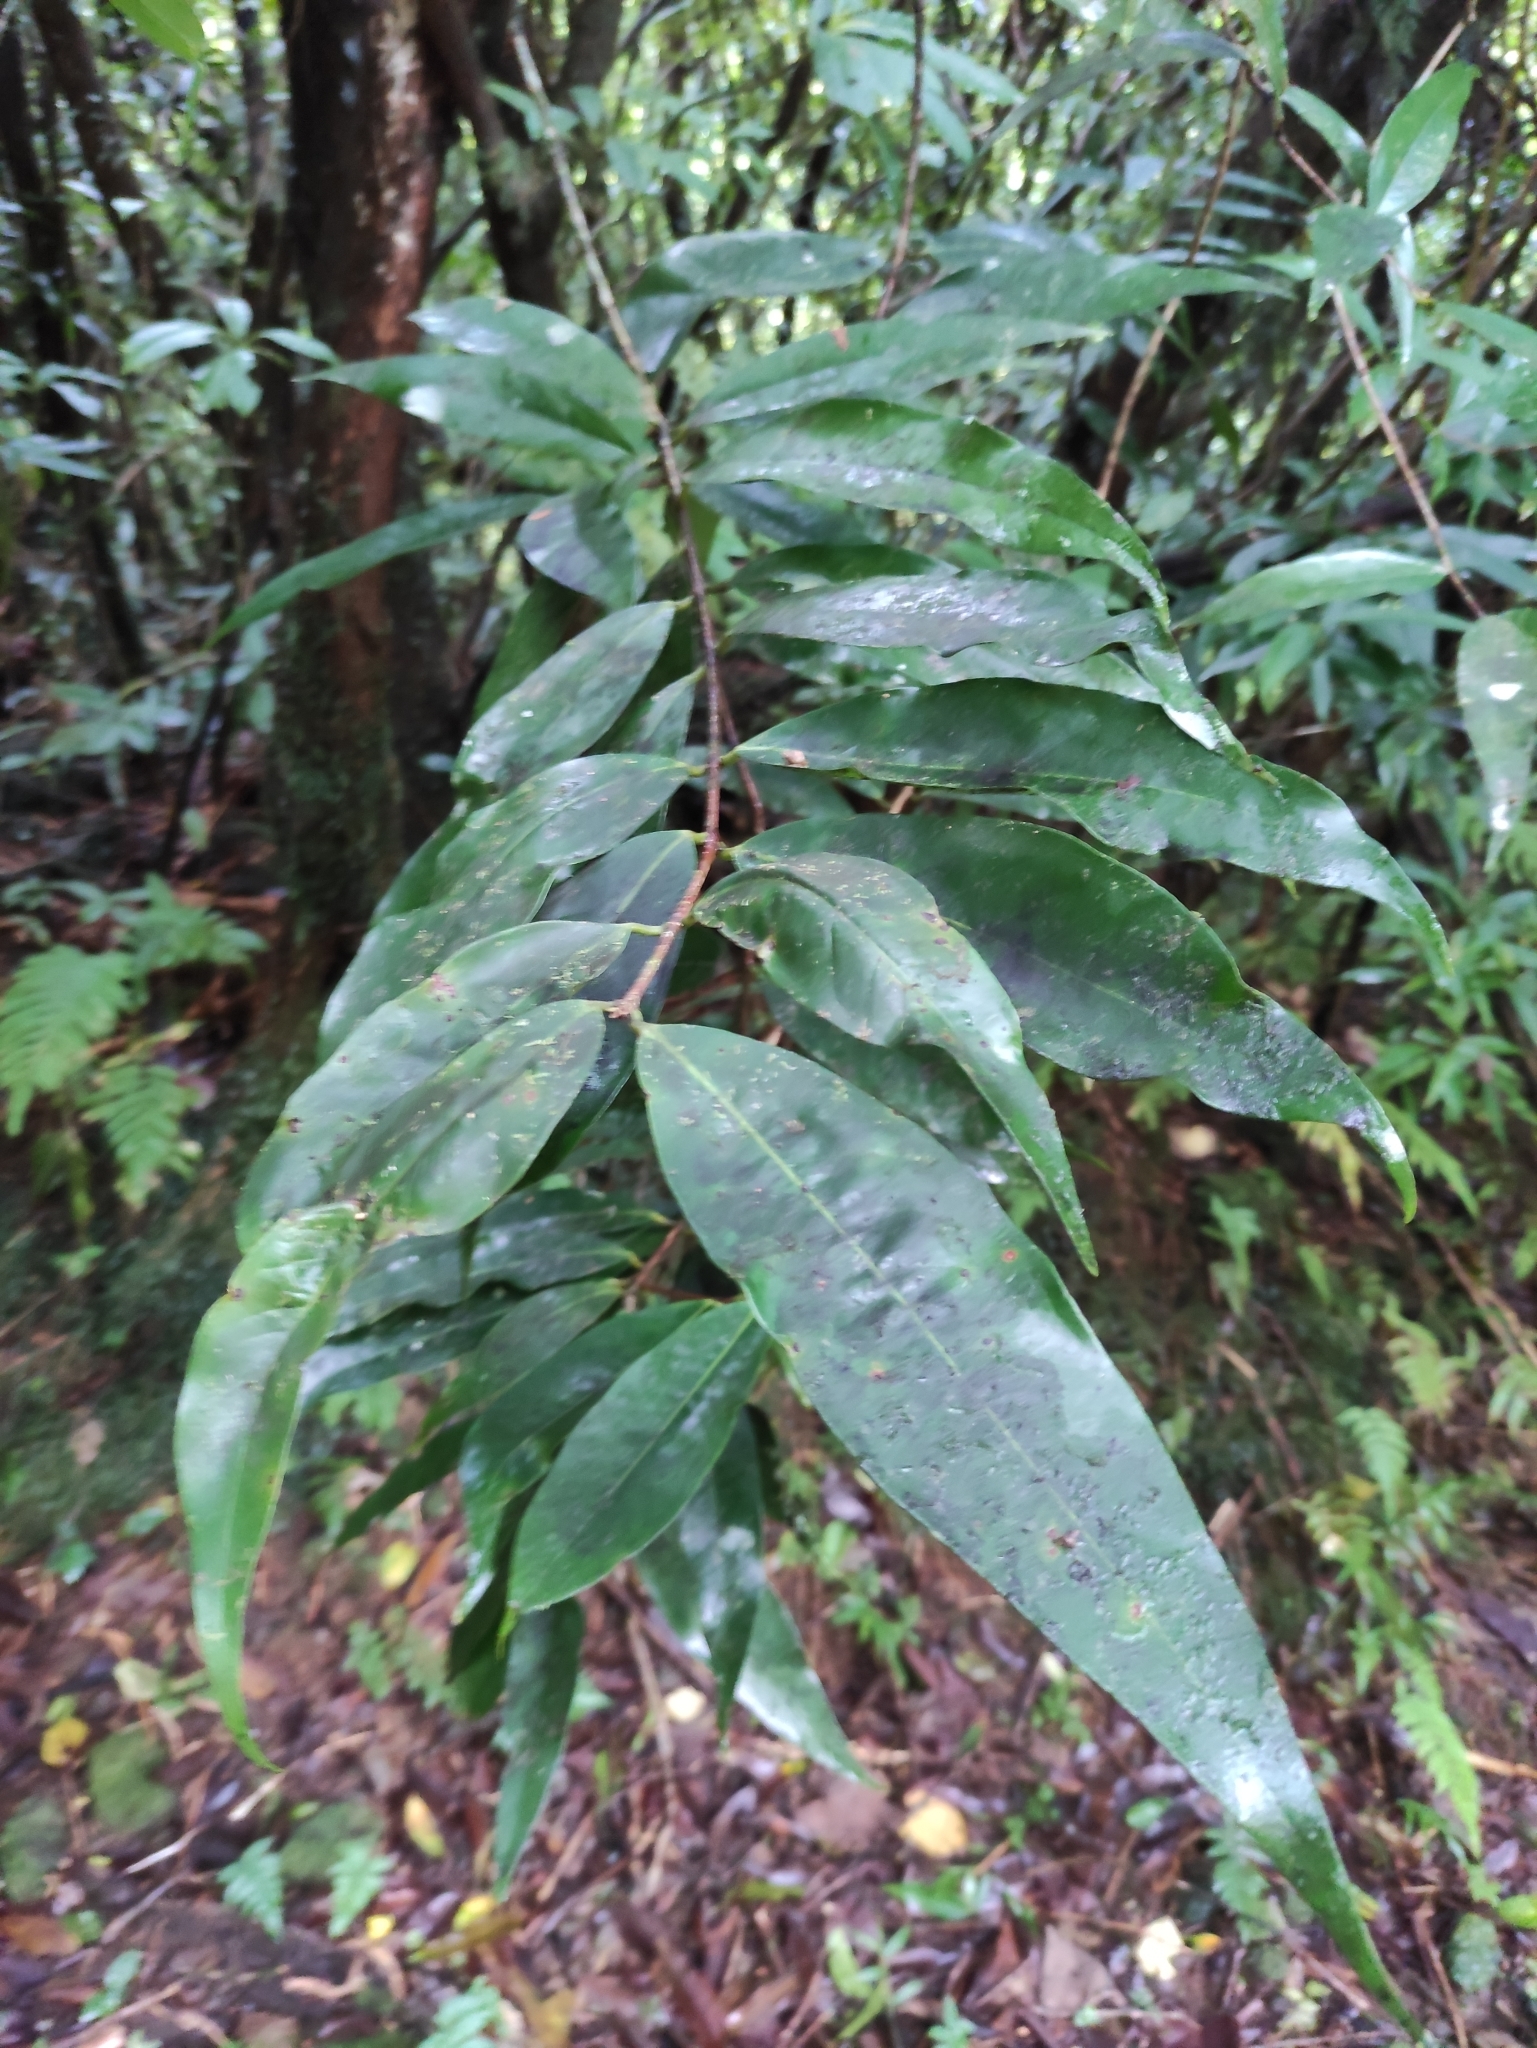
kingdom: Plantae
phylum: Tracheophyta
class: Magnoliopsida
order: Myrtales
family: Myrtaceae
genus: Syzygium
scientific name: Syzygium jambos
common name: Malabar plum
